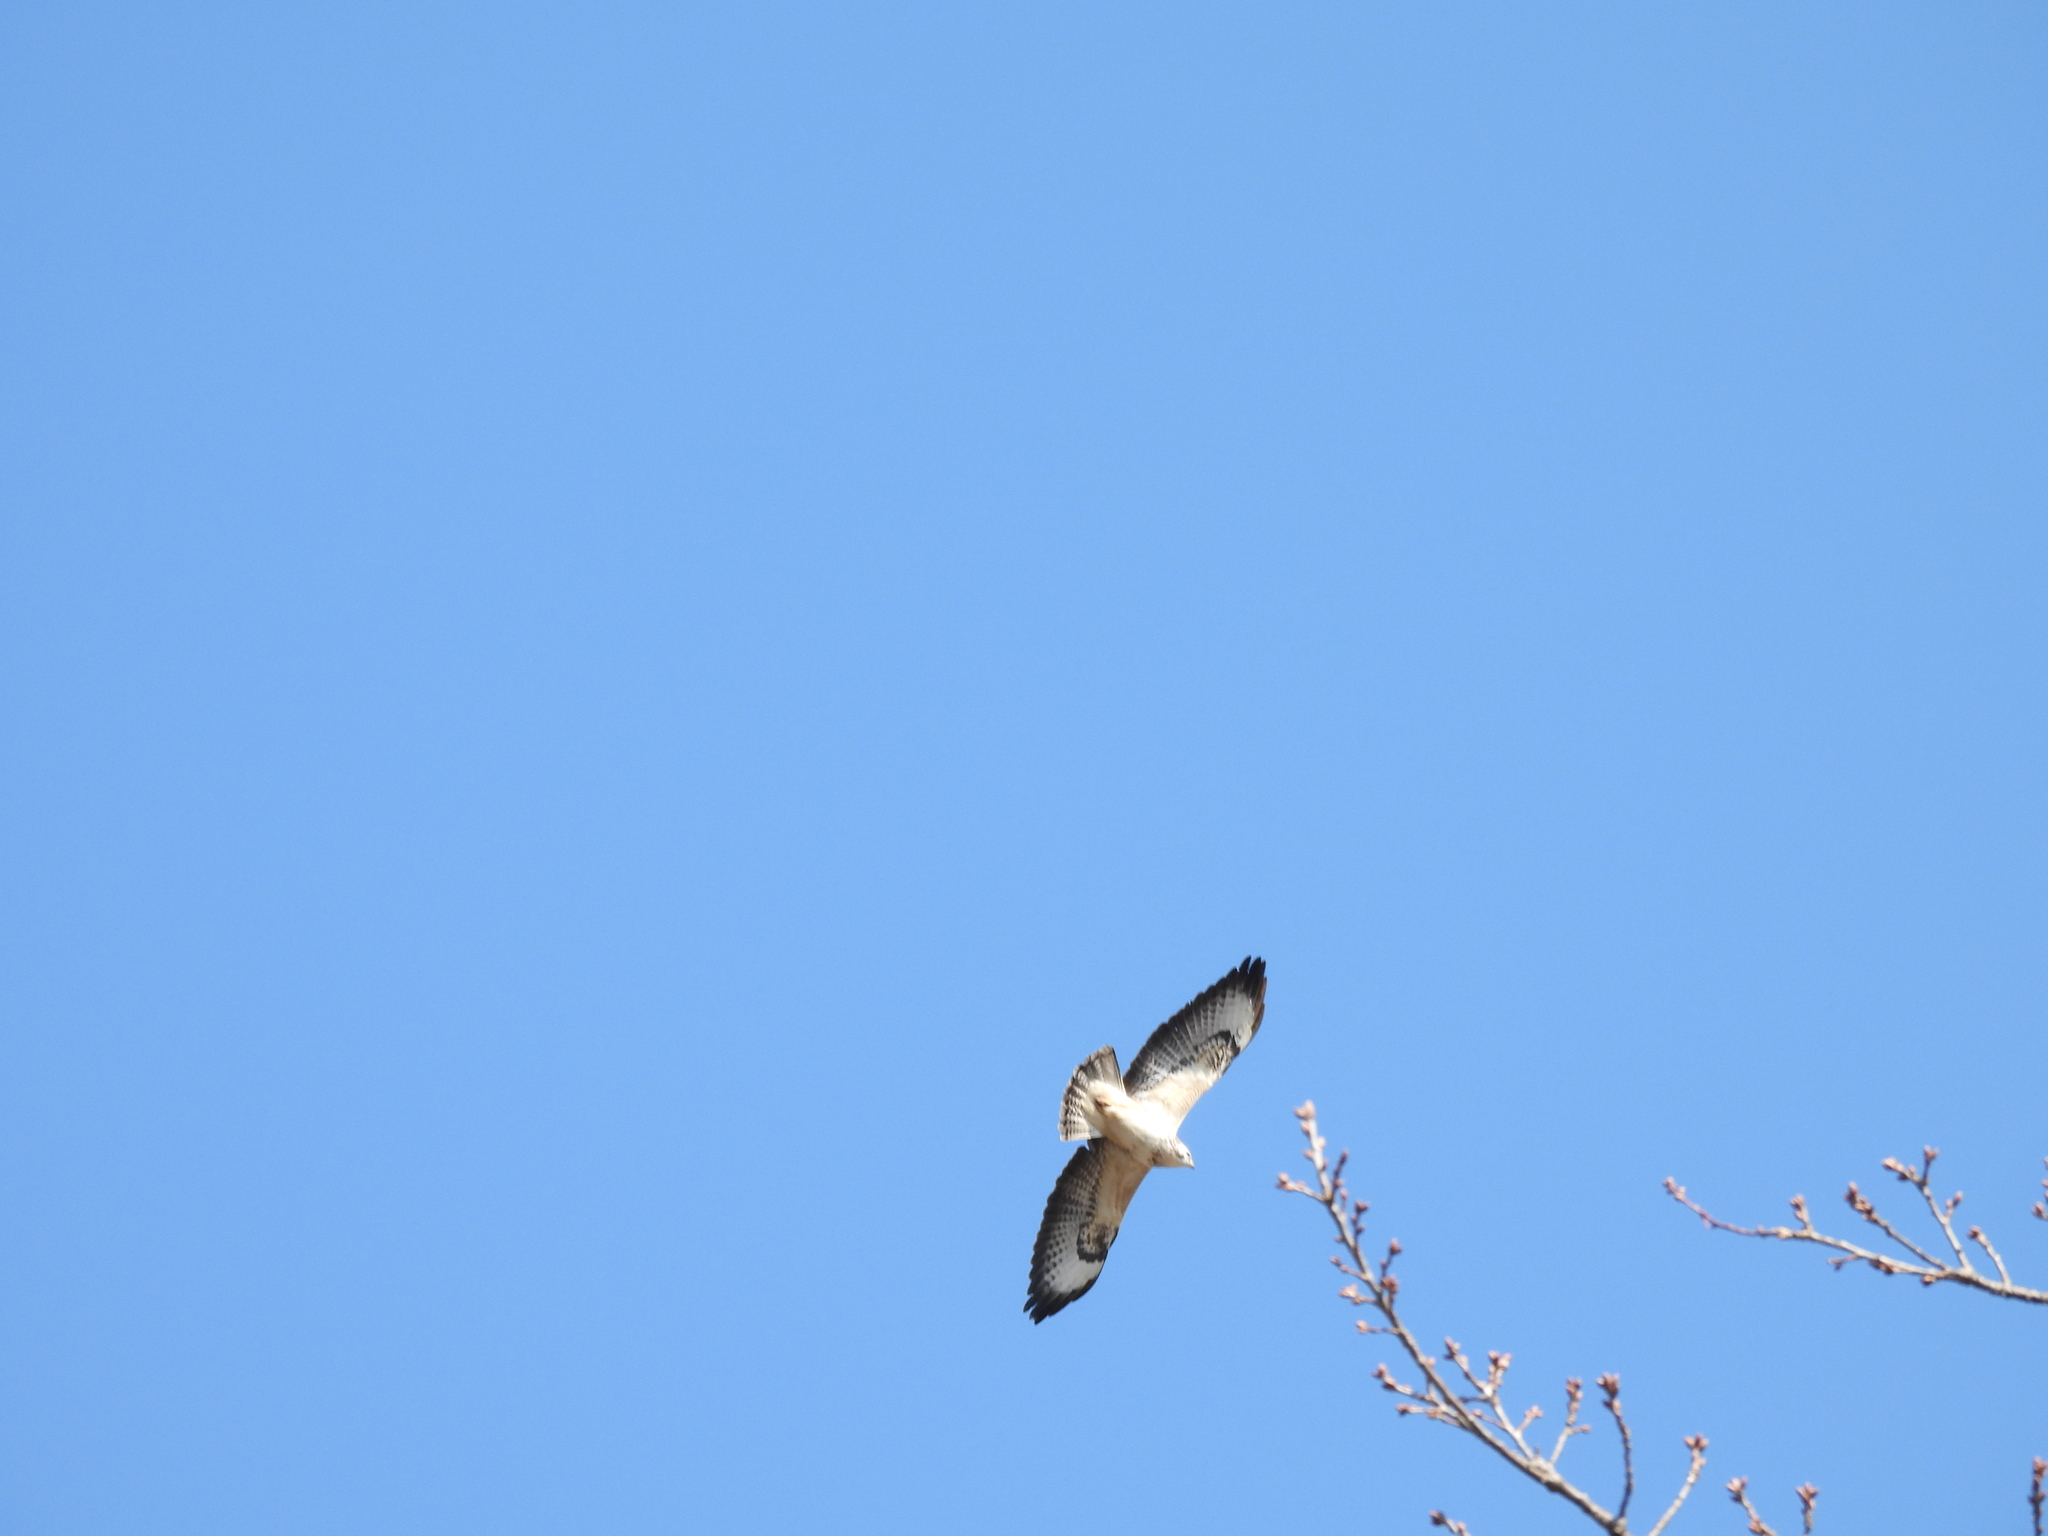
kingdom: Animalia
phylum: Chordata
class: Aves
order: Accipitriformes
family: Accipitridae
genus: Buteo
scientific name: Buteo buteo
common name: Common buzzard
